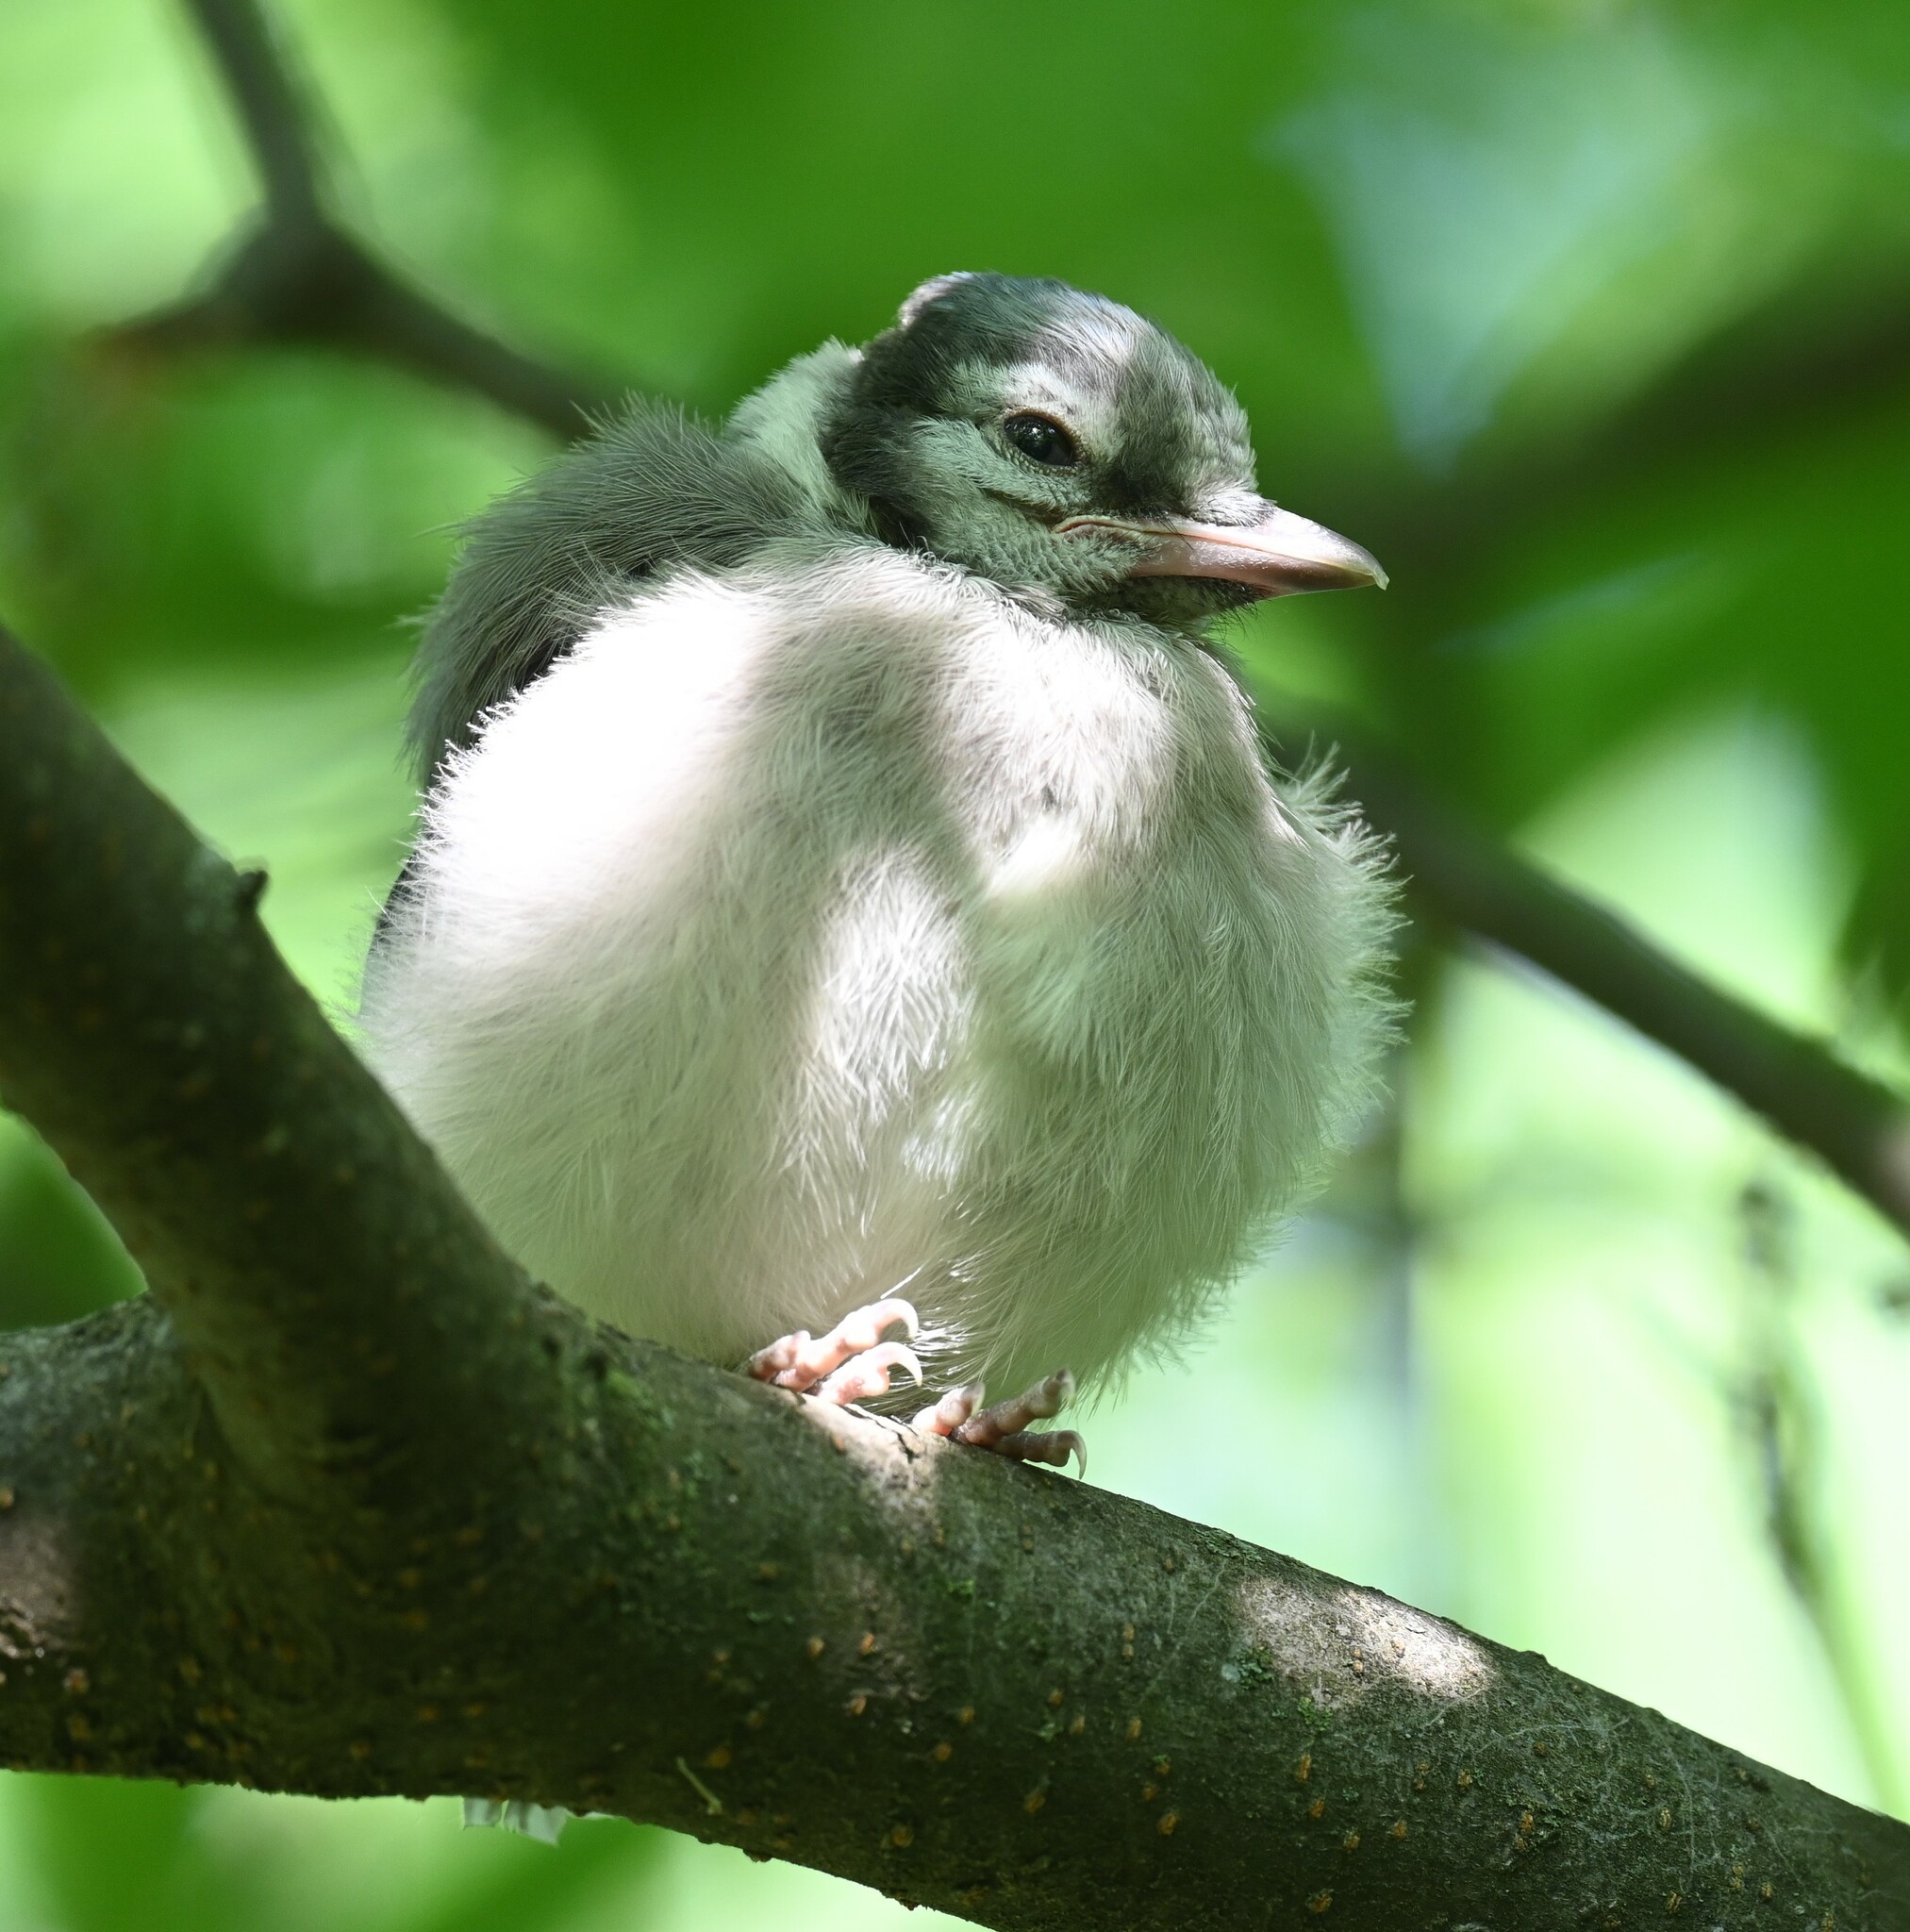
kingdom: Animalia
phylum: Chordata
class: Aves
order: Passeriformes
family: Corvidae
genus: Cyanocitta
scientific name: Cyanocitta cristata
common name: Blue jay
